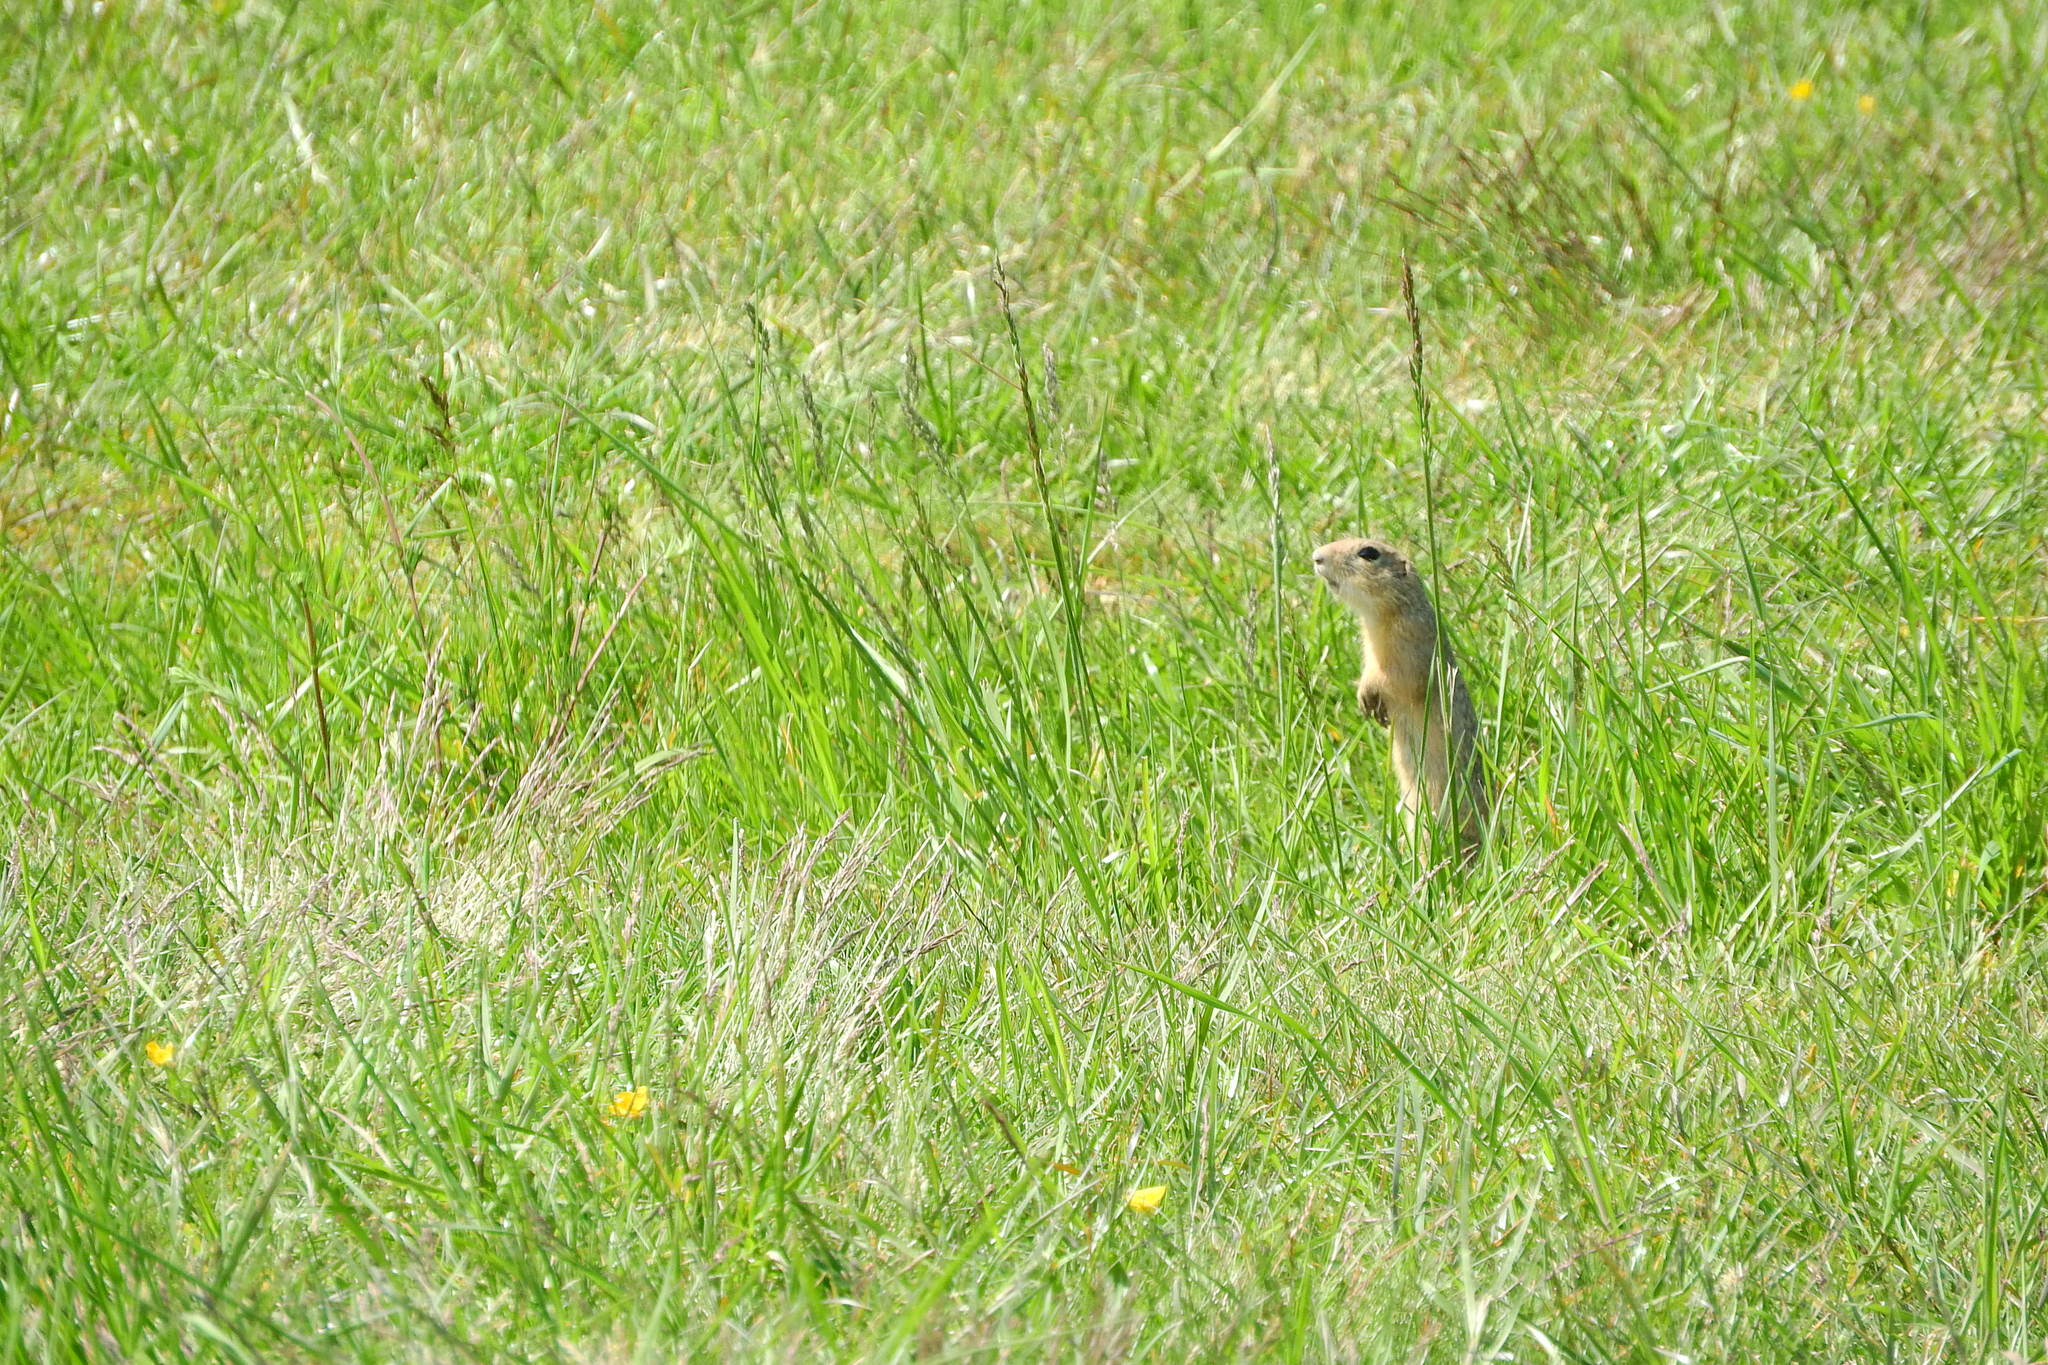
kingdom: Animalia
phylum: Chordata
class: Mammalia
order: Rodentia
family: Sciuridae
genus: Spermophilus
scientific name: Spermophilus citellus
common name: European ground squirrel
